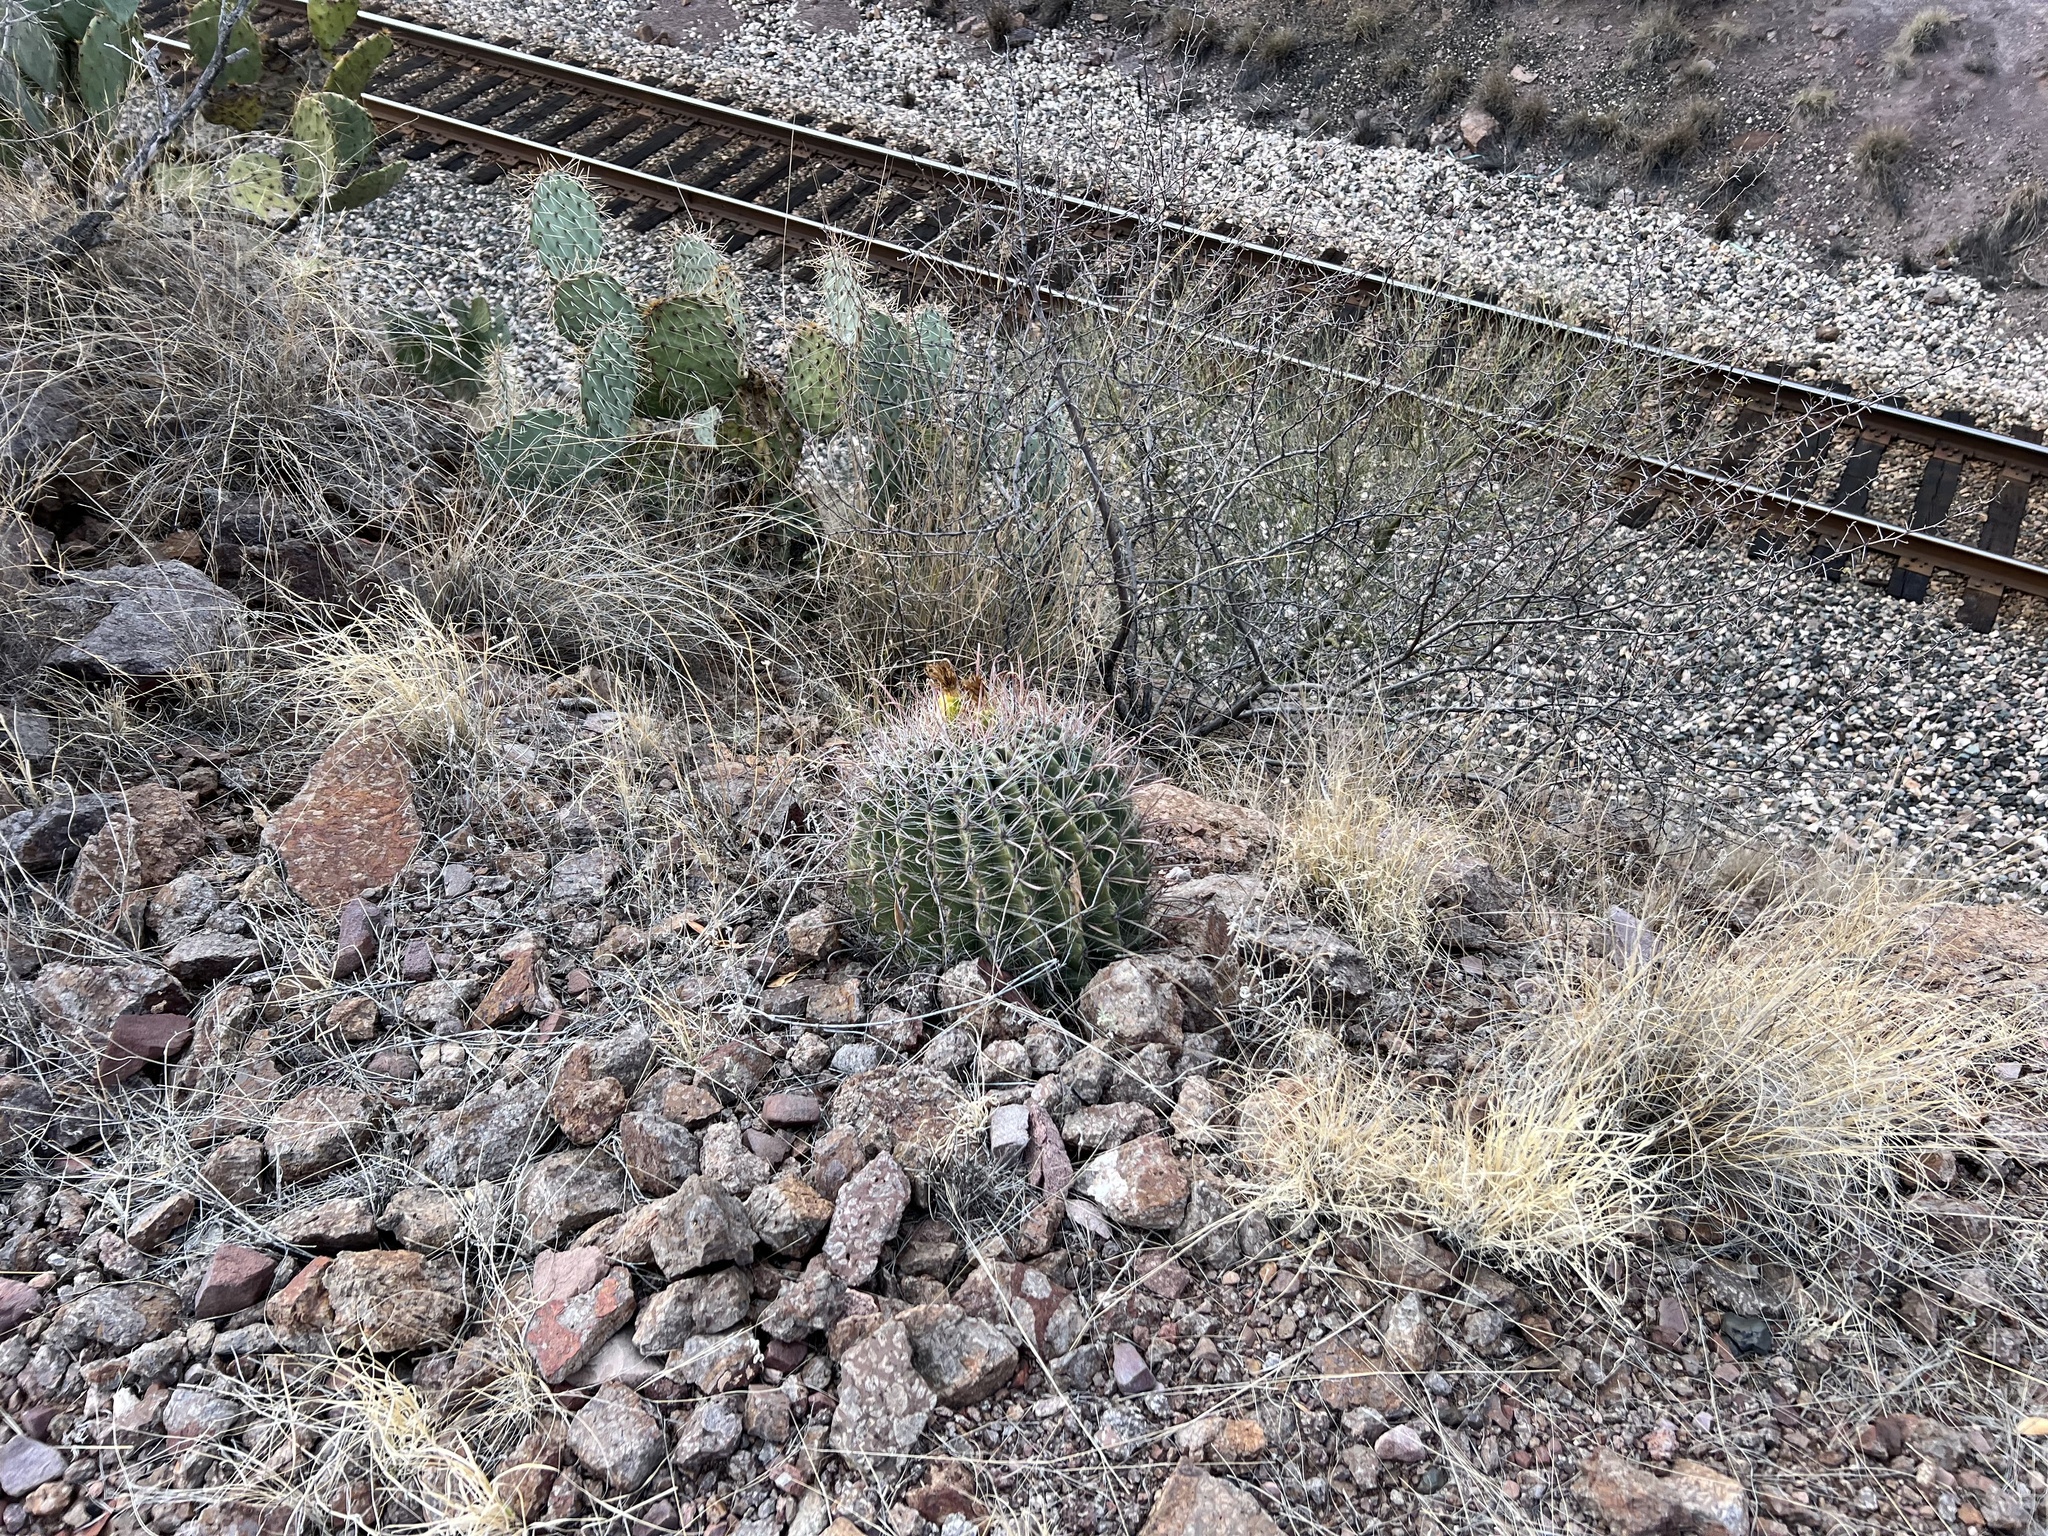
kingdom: Plantae
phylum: Tracheophyta
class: Magnoliopsida
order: Caryophyllales
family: Cactaceae
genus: Ferocactus
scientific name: Ferocactus wislizeni
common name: Candy barrel cactus
